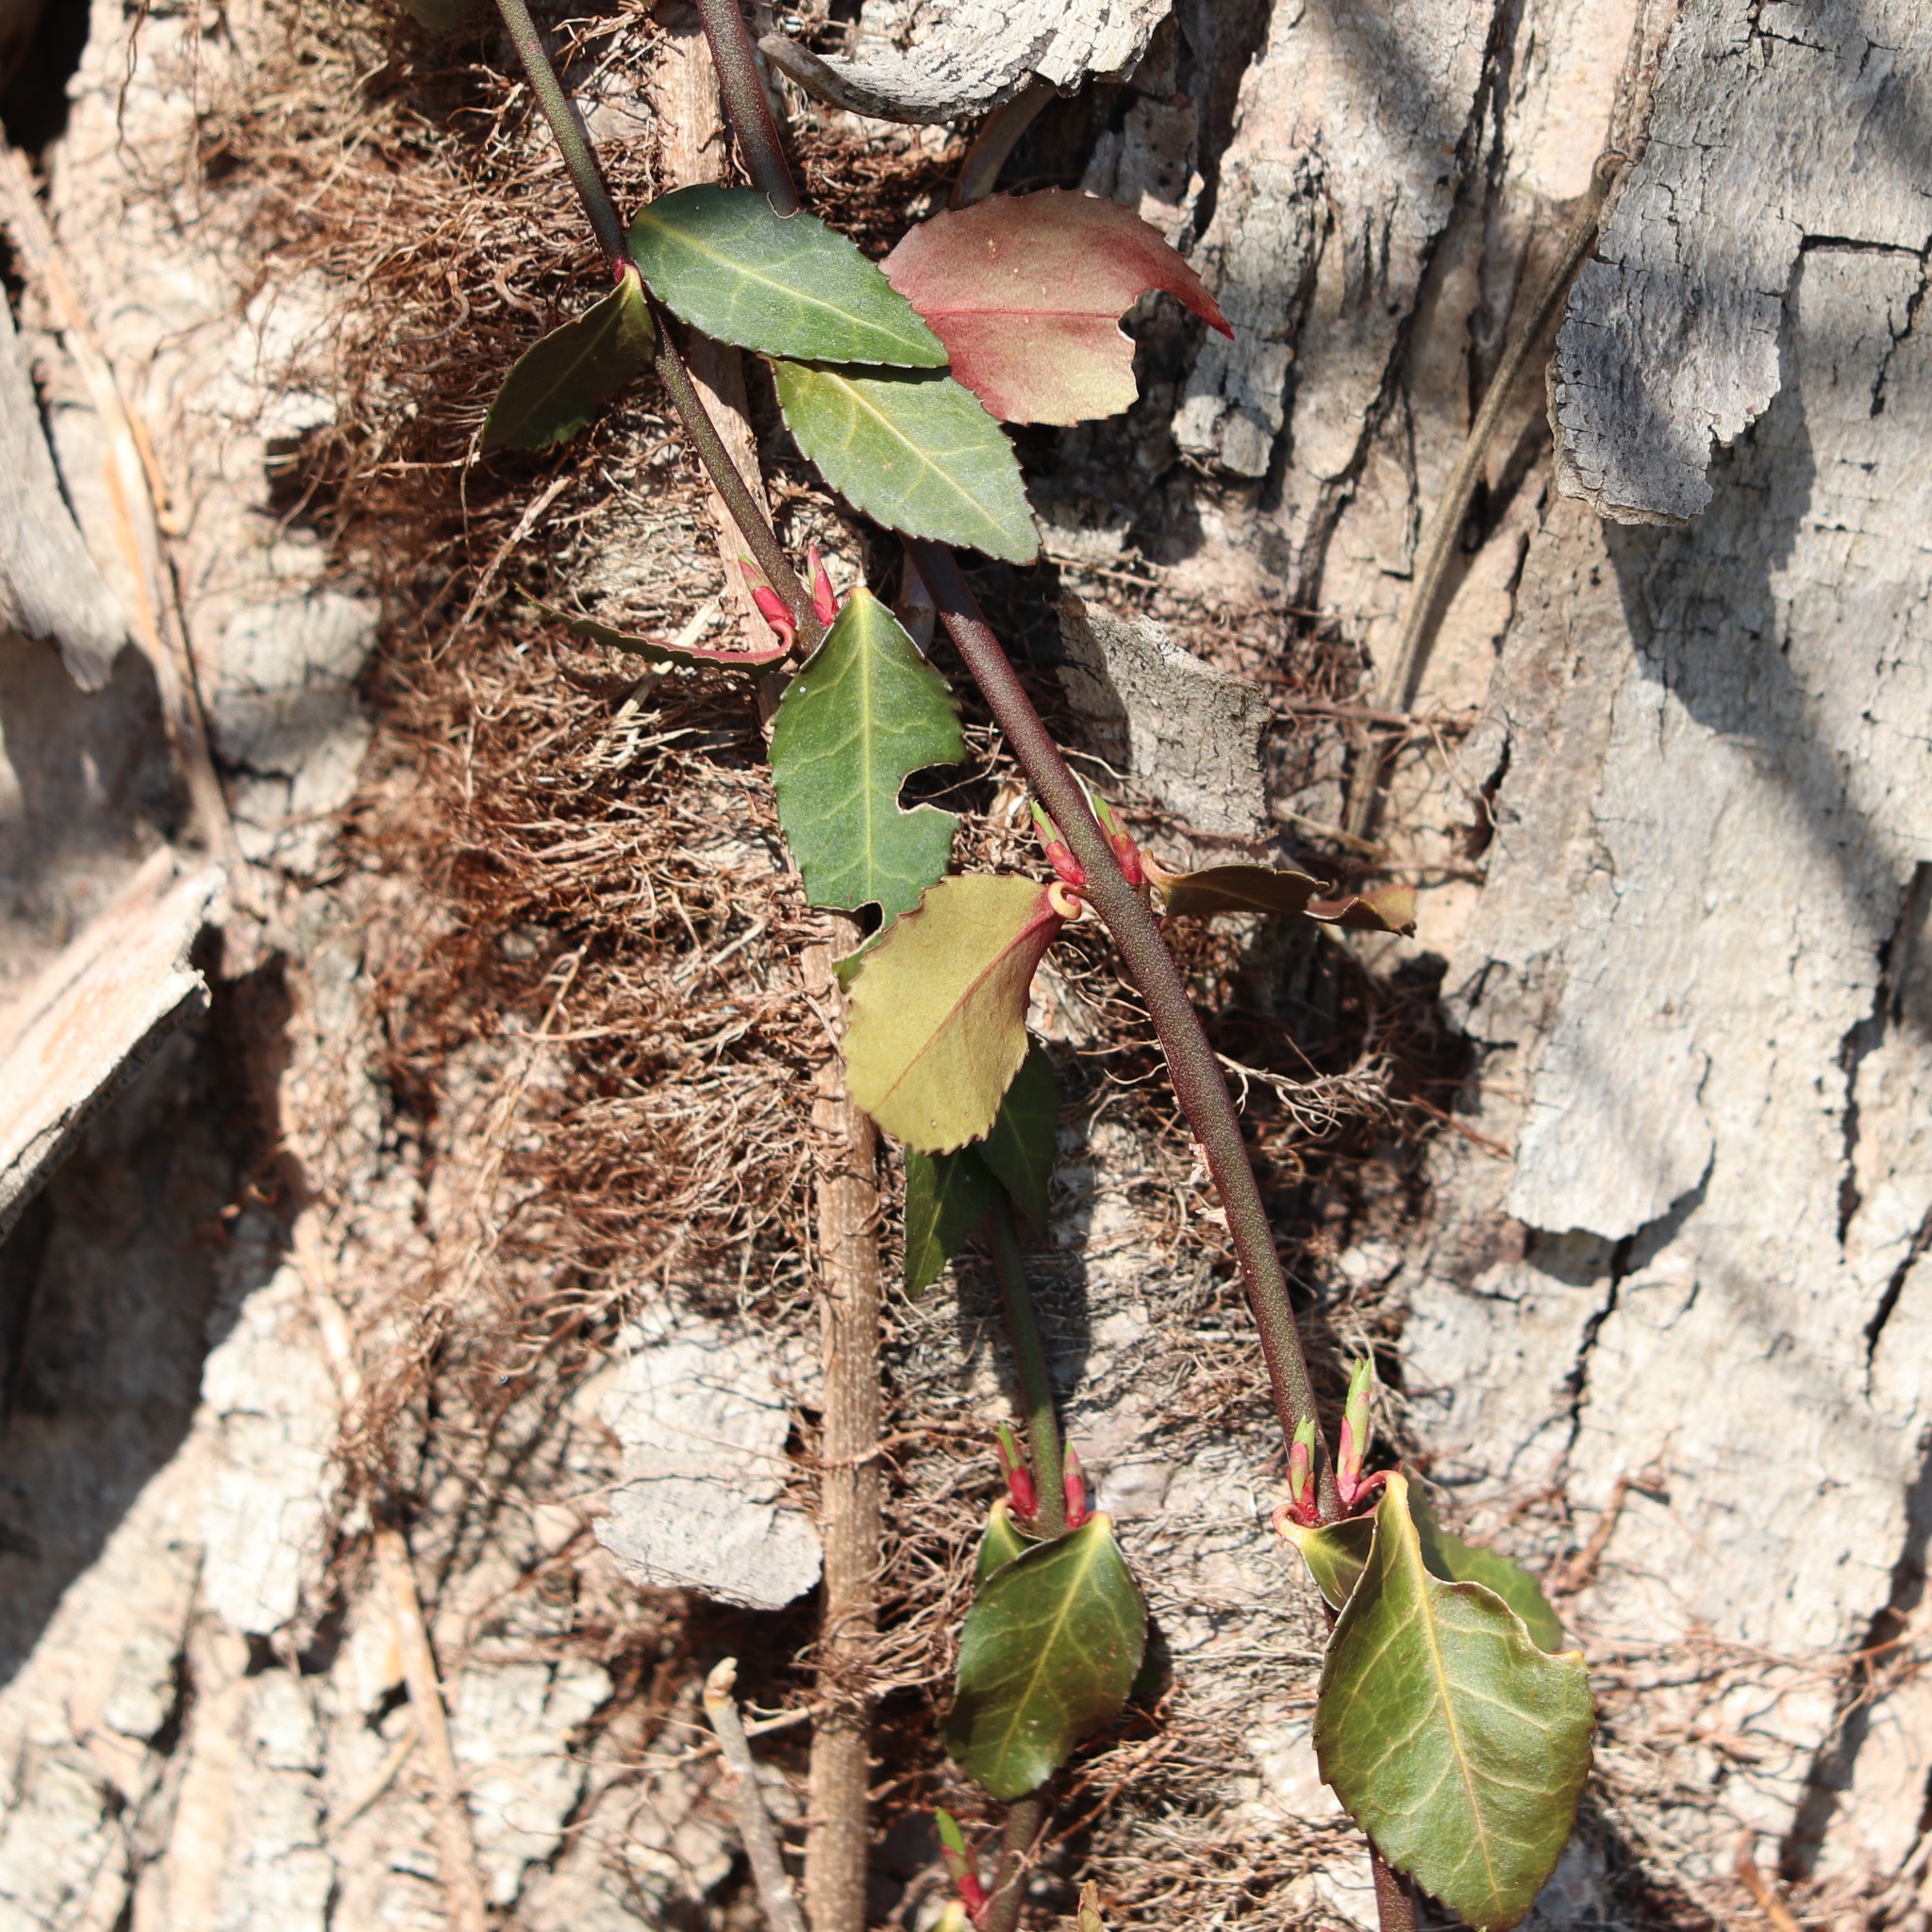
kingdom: Plantae
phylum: Tracheophyta
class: Magnoliopsida
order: Celastrales
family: Celastraceae
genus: Euonymus
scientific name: Euonymus fortunei
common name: Climbing euonymus
